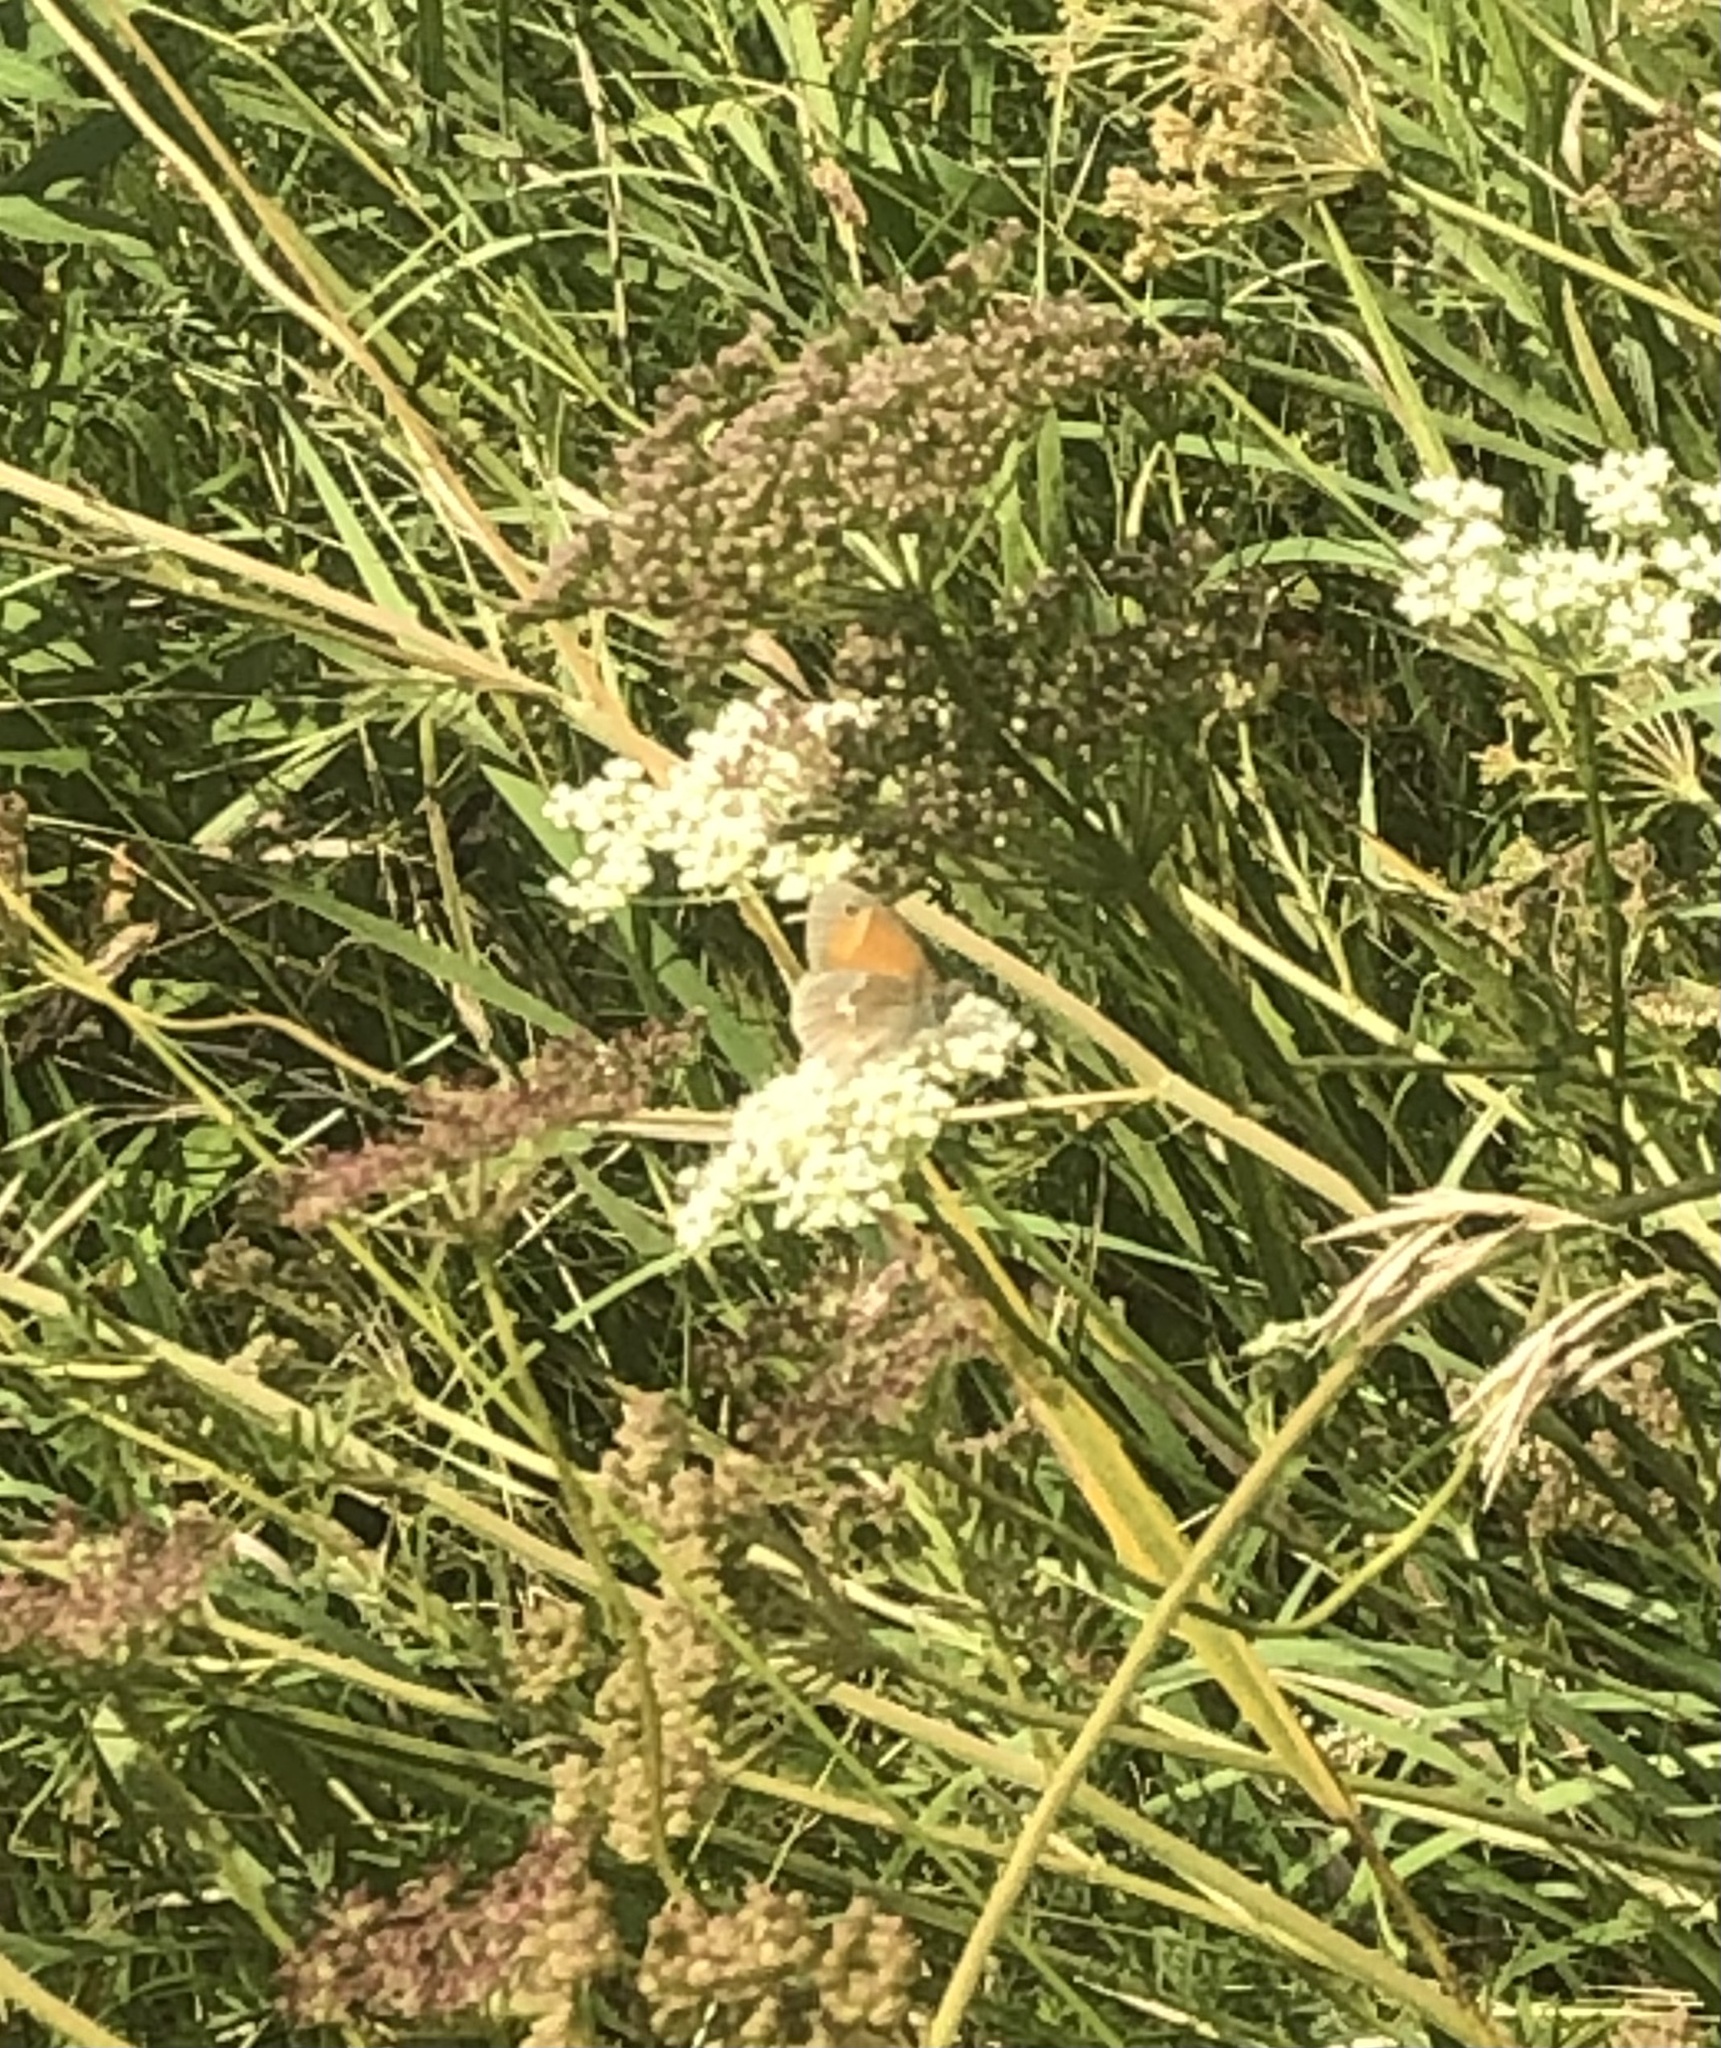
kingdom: Animalia
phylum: Arthropoda
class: Insecta
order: Lepidoptera
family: Nymphalidae
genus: Coenonympha
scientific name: Coenonympha california
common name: Common ringlet
